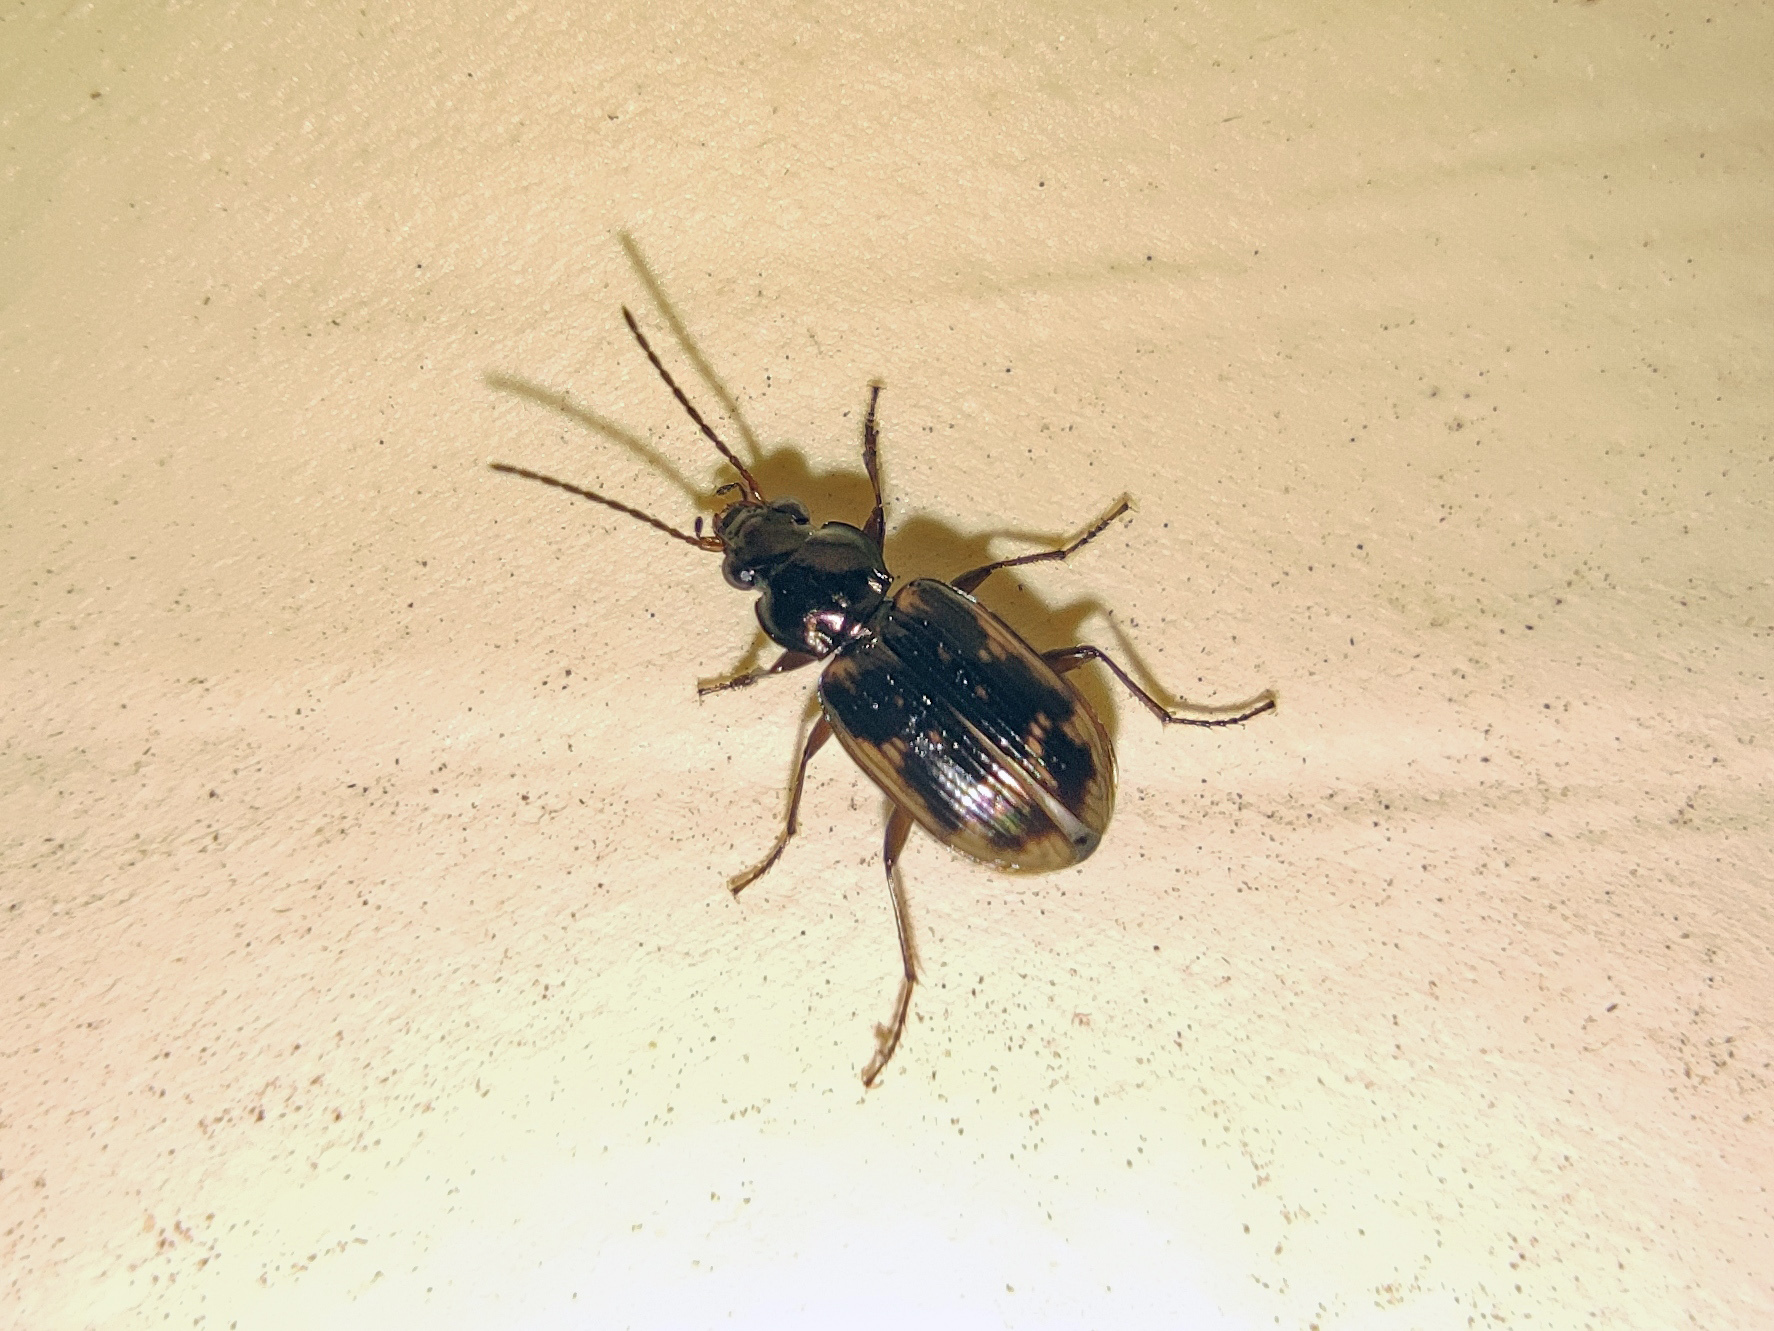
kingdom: Animalia
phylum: Arthropoda
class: Insecta
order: Coleoptera
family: Carabidae
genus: Bembidion
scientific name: Bembidion semipunctatum
